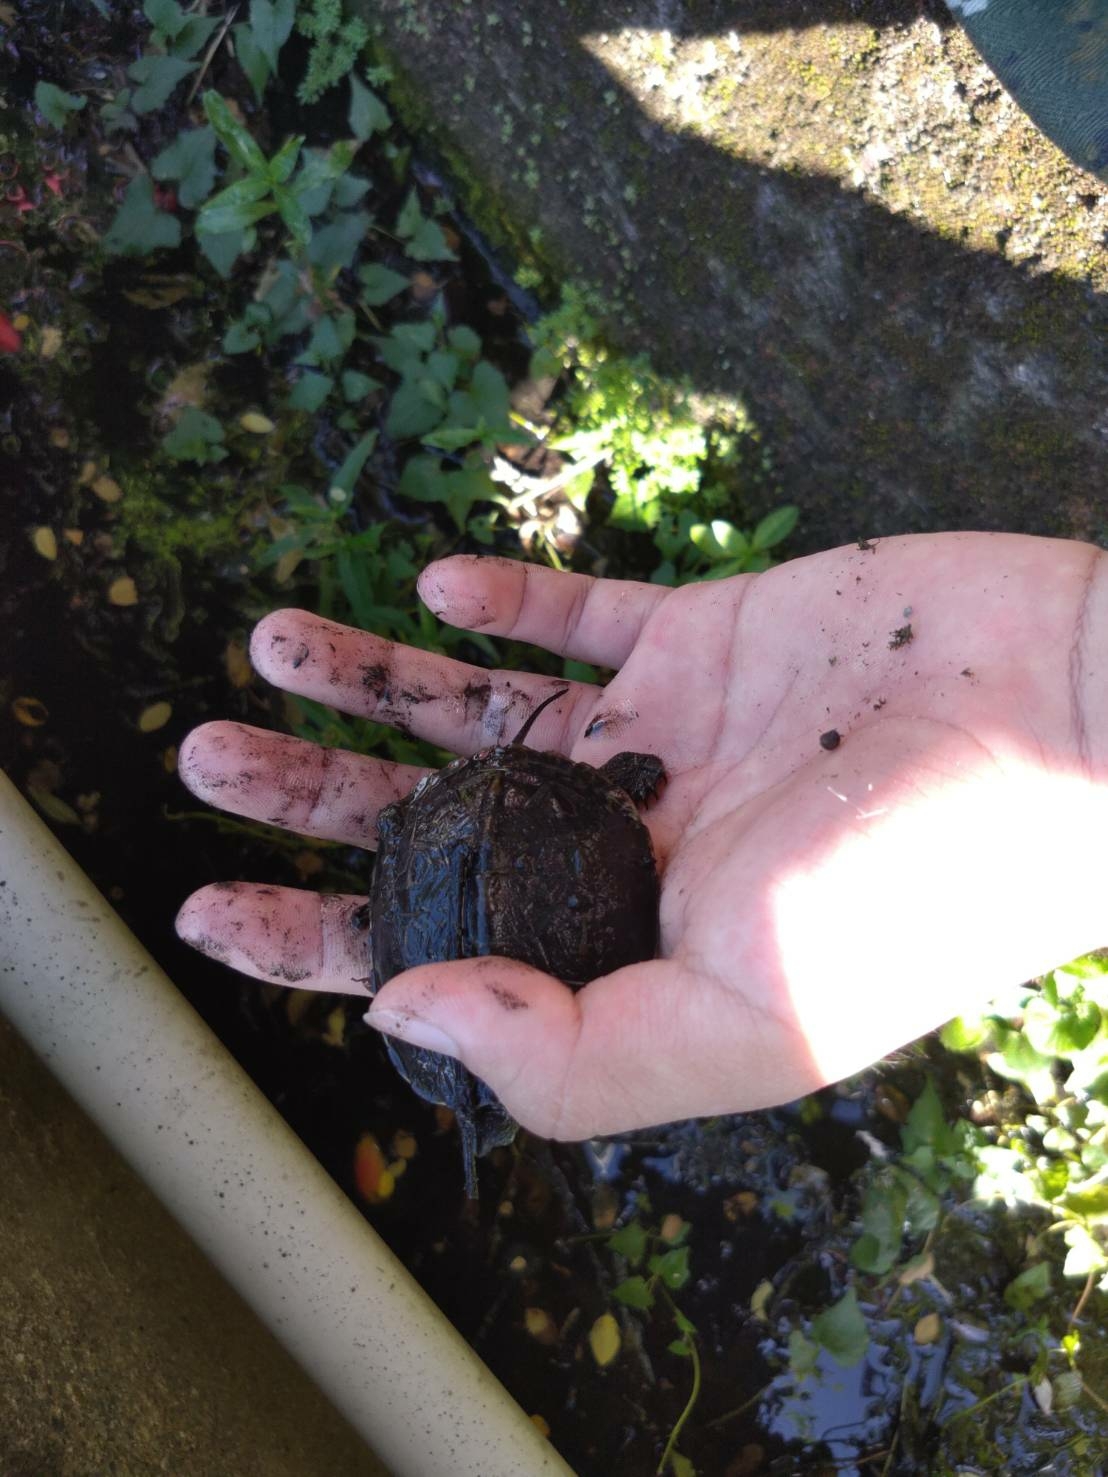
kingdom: Animalia
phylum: Chordata
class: Testudines
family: Geoemydidae
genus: Mauremys
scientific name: Mauremys sinensis
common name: Chinese stripe-necked turtle
